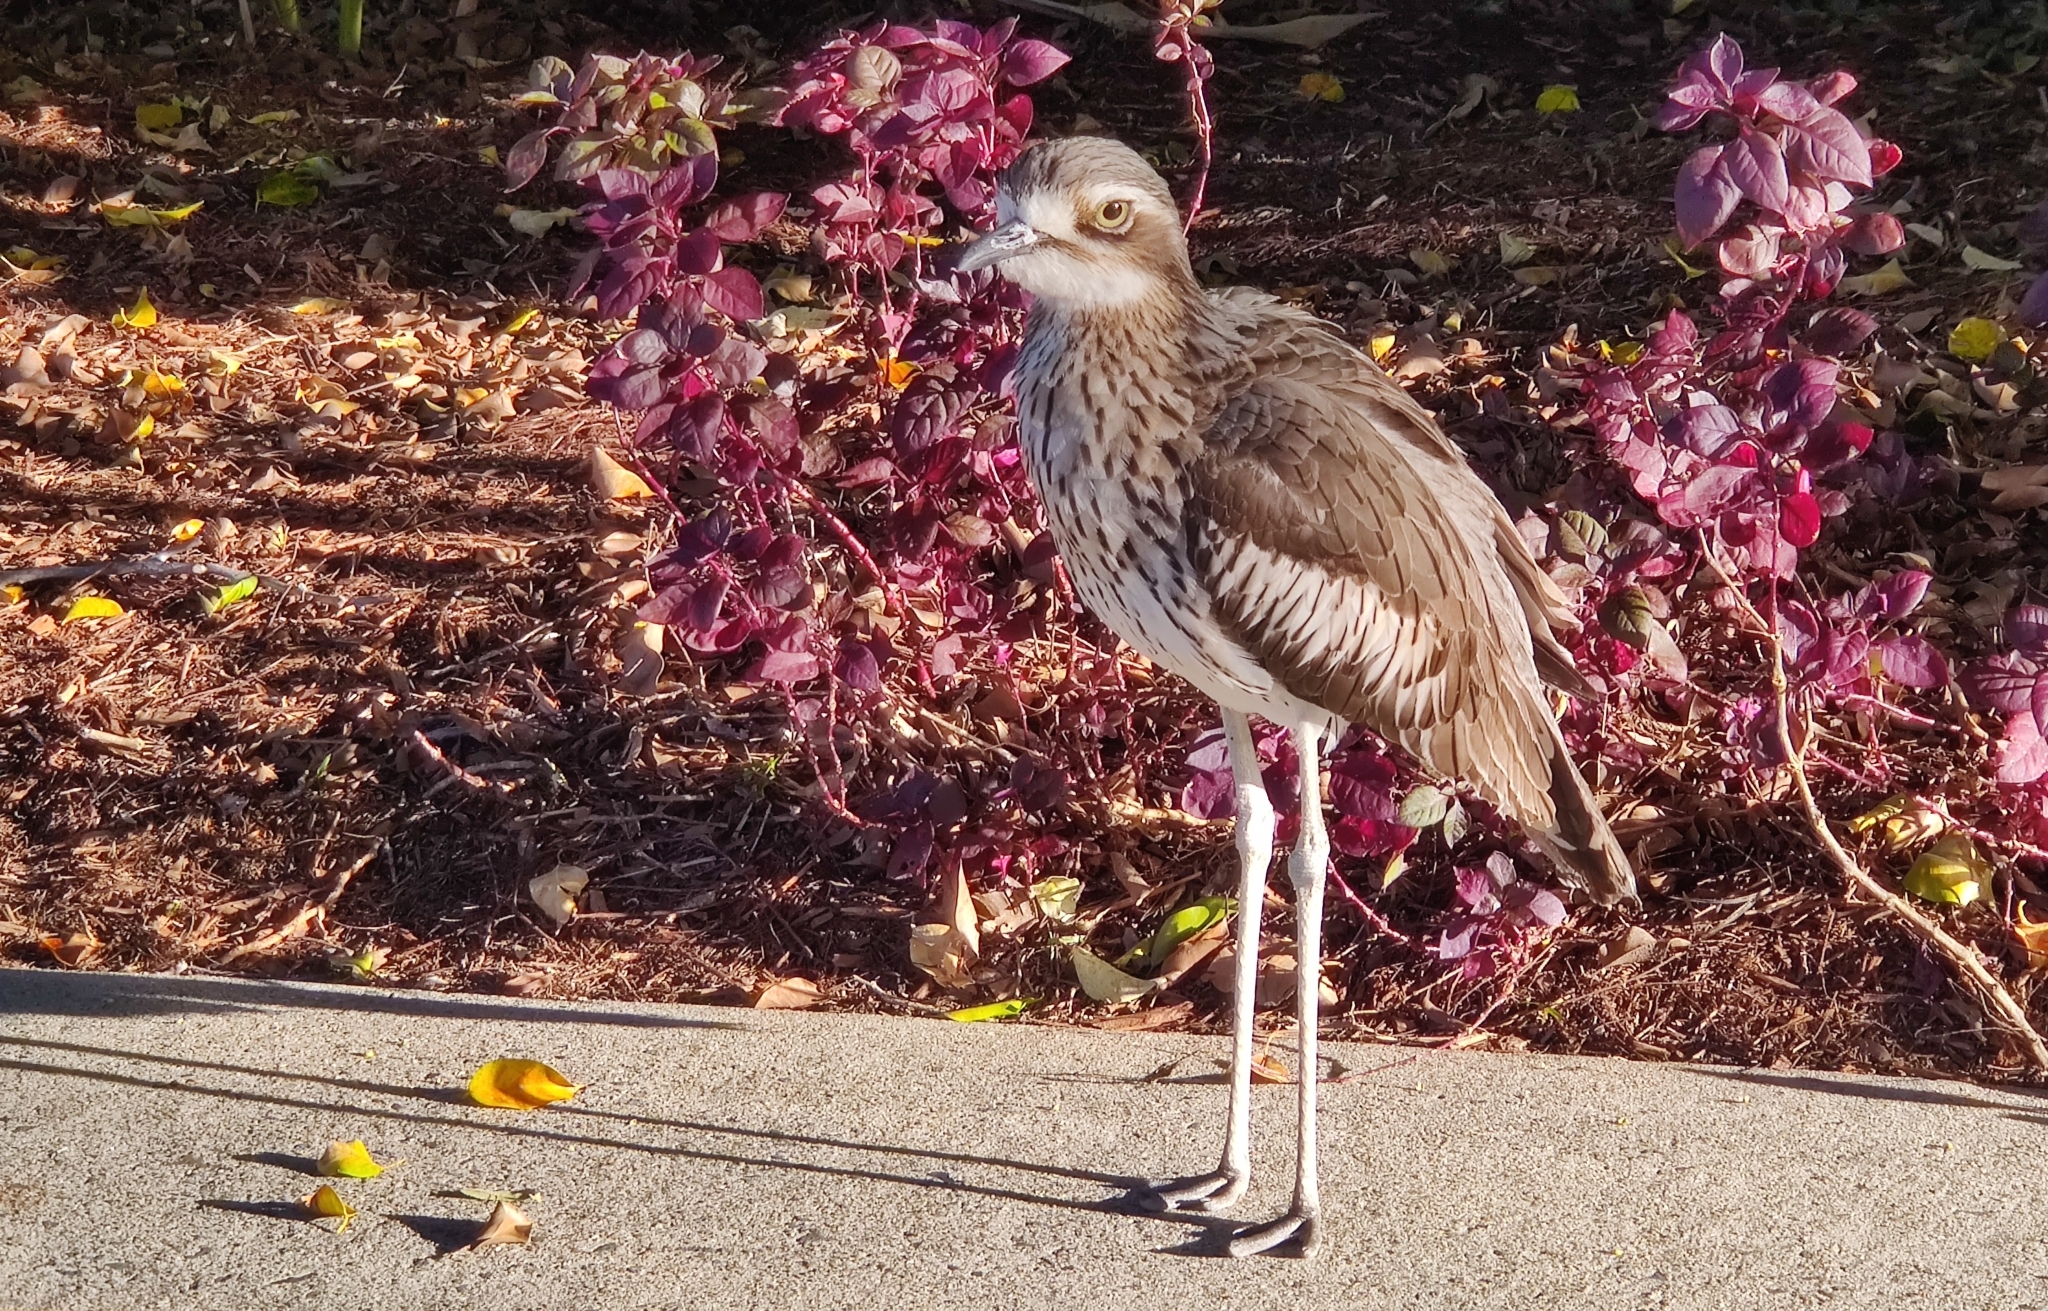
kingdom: Animalia
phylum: Chordata
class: Aves
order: Charadriiformes
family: Burhinidae
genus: Burhinus
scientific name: Burhinus grallarius
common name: Bush stone-curlew
